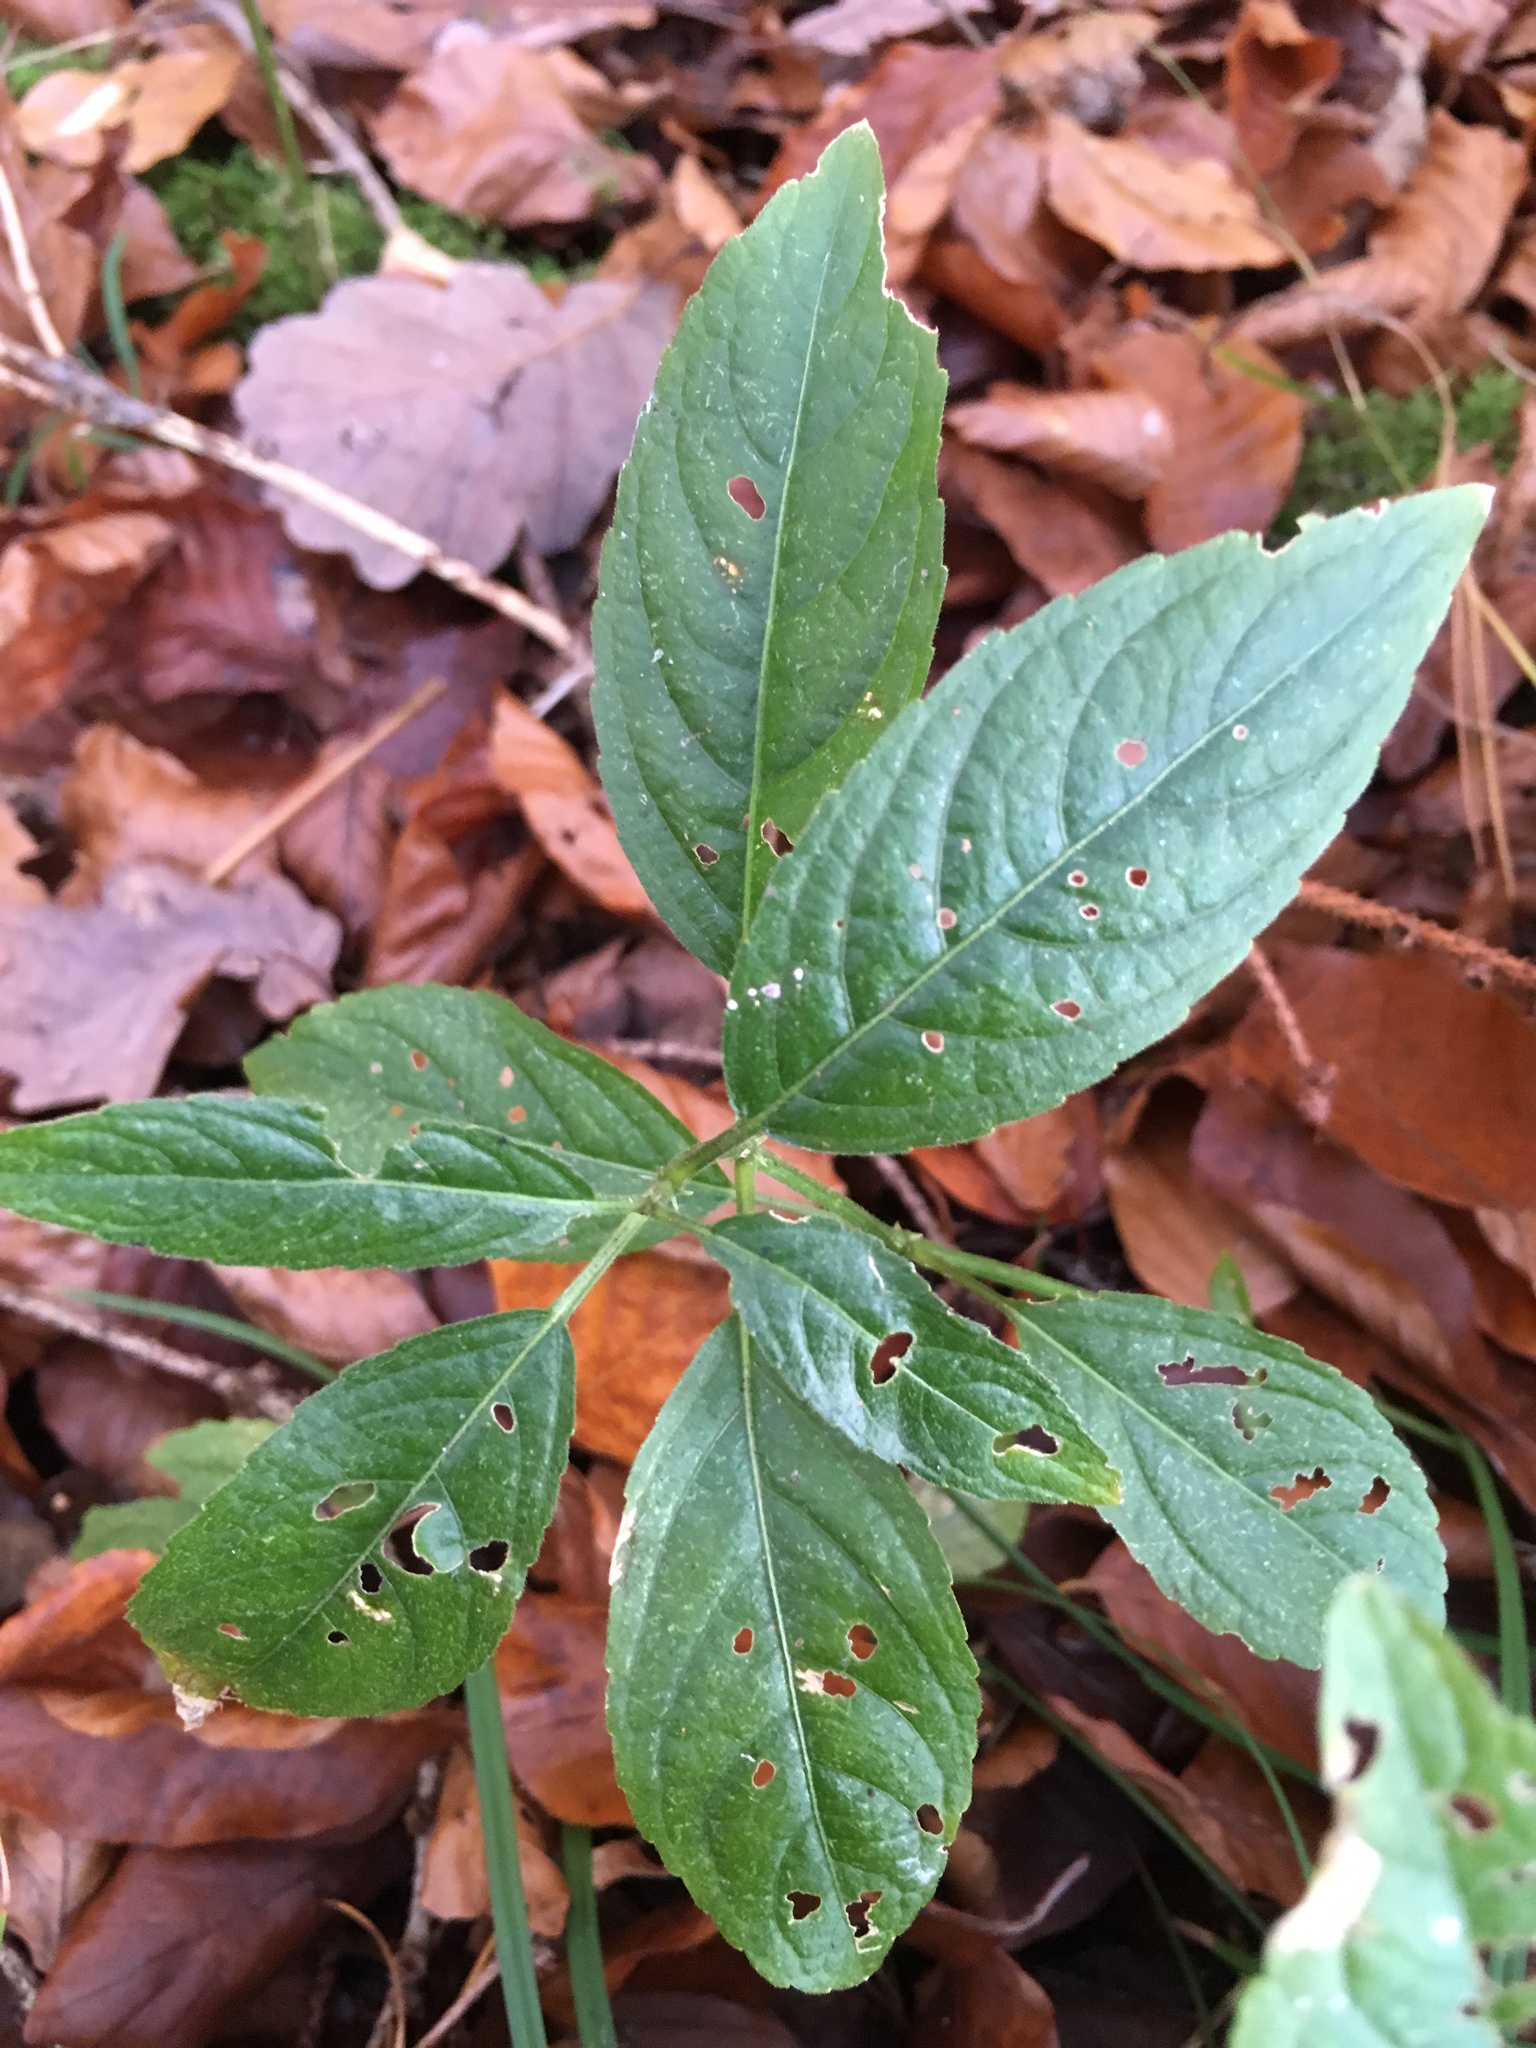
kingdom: Plantae
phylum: Tracheophyta
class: Magnoliopsida
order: Malpighiales
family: Euphorbiaceae
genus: Mercurialis
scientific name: Mercurialis perennis
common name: Dog mercury
